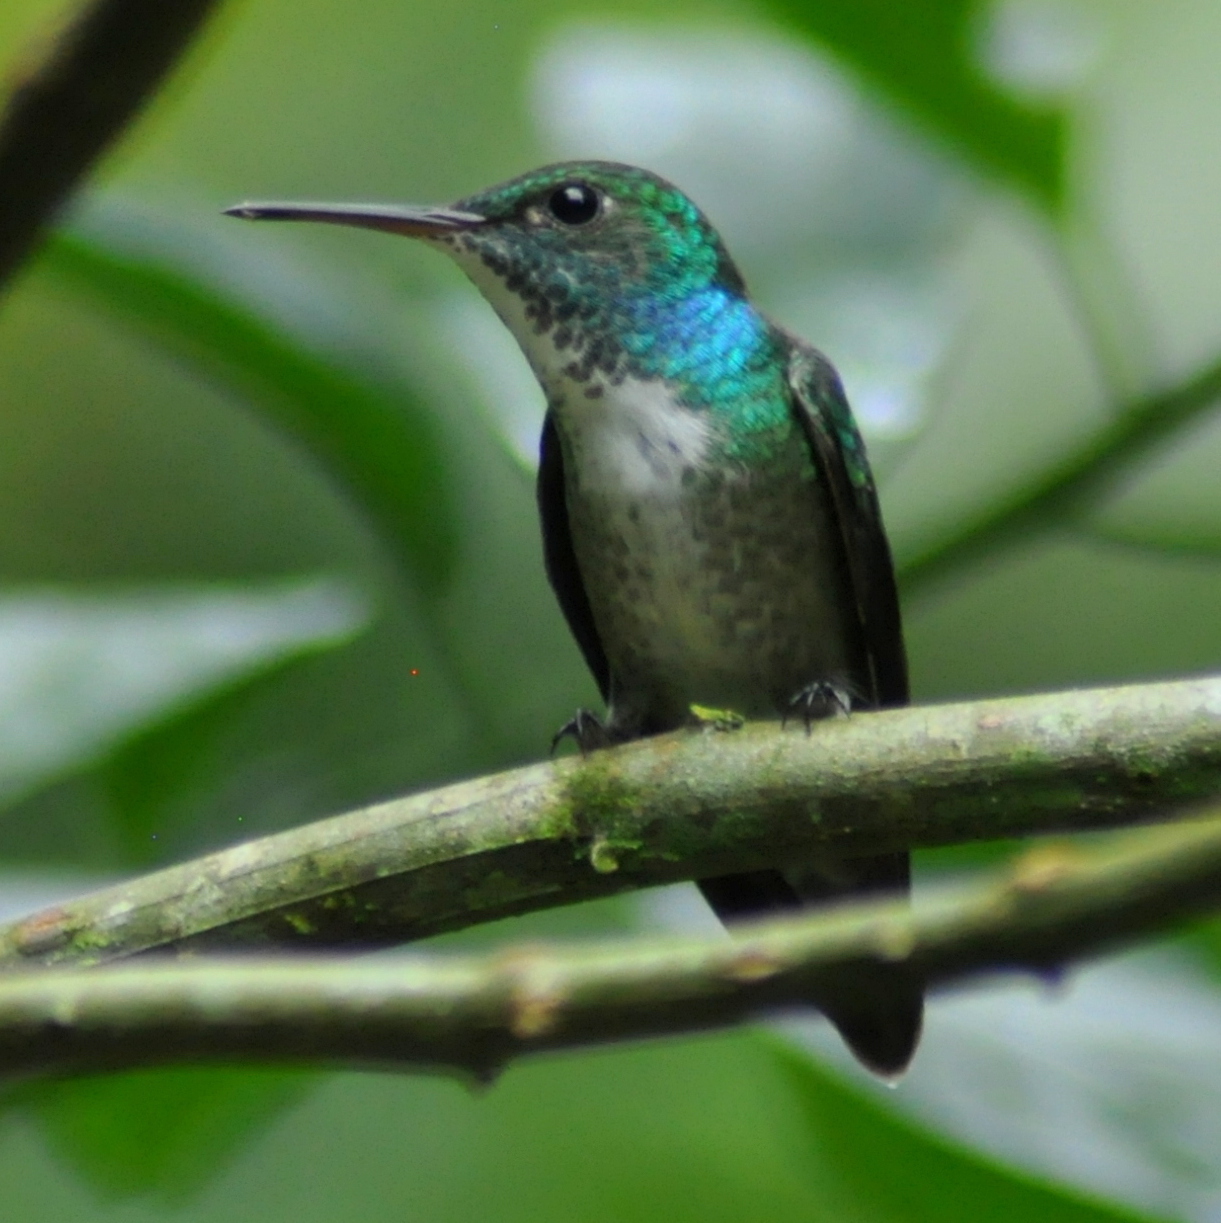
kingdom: Animalia
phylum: Chordata
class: Aves
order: Apodiformes
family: Trochilidae
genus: Chrysuronia
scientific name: Chrysuronia versicolor
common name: Versicolored emerald
